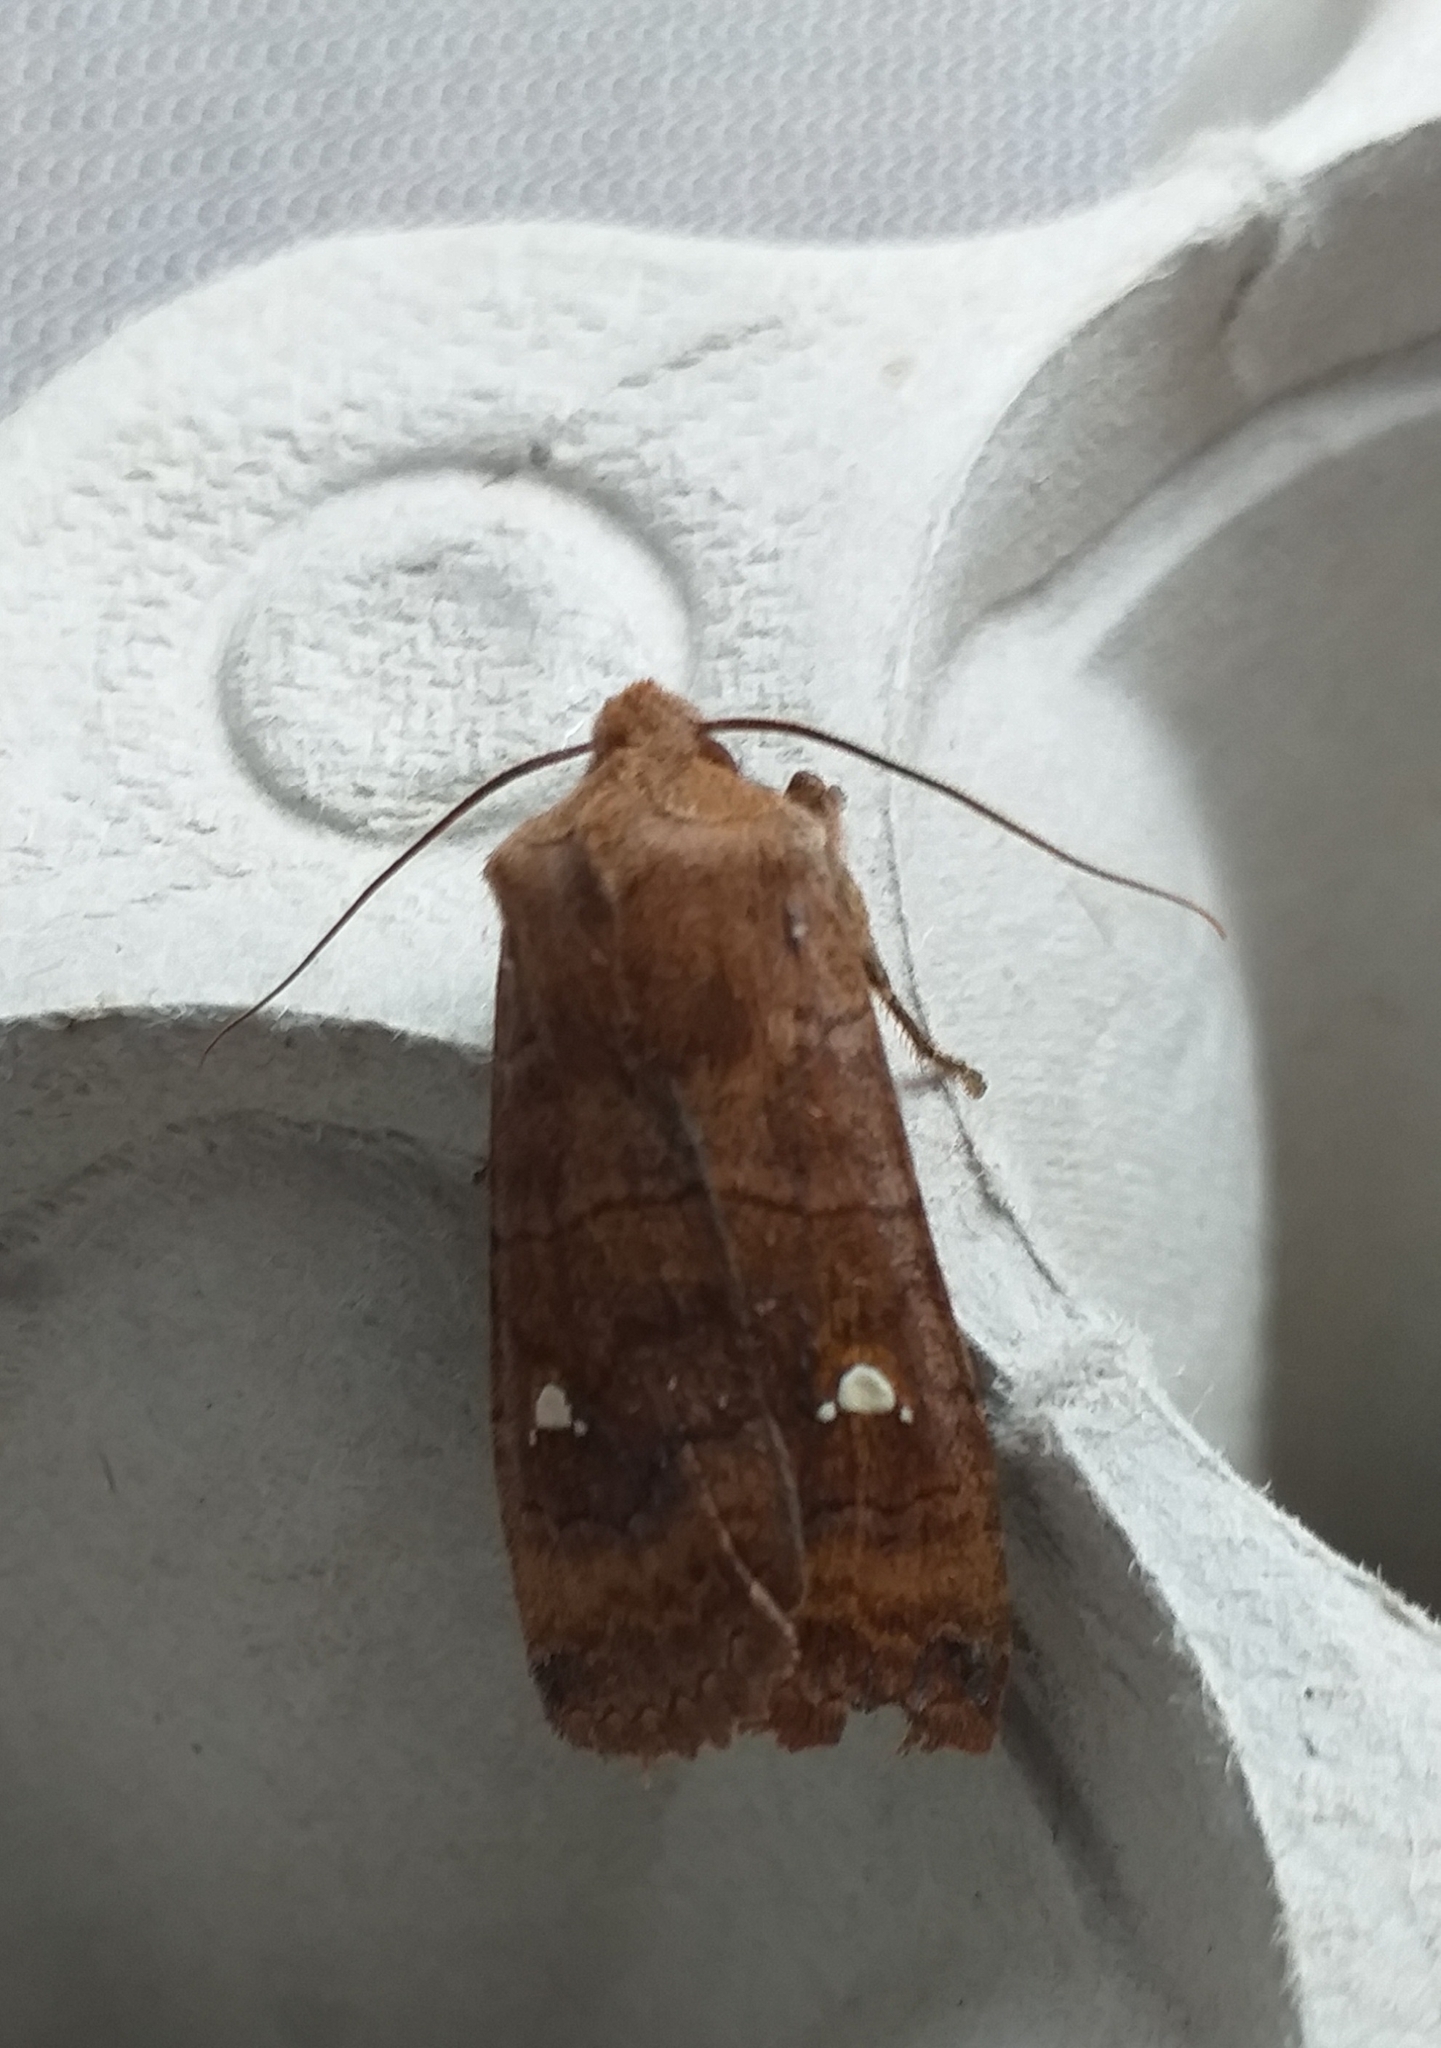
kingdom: Animalia
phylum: Arthropoda
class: Insecta
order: Lepidoptera
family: Noctuidae
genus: Eupsilia
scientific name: Eupsilia transversa
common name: Satellite
